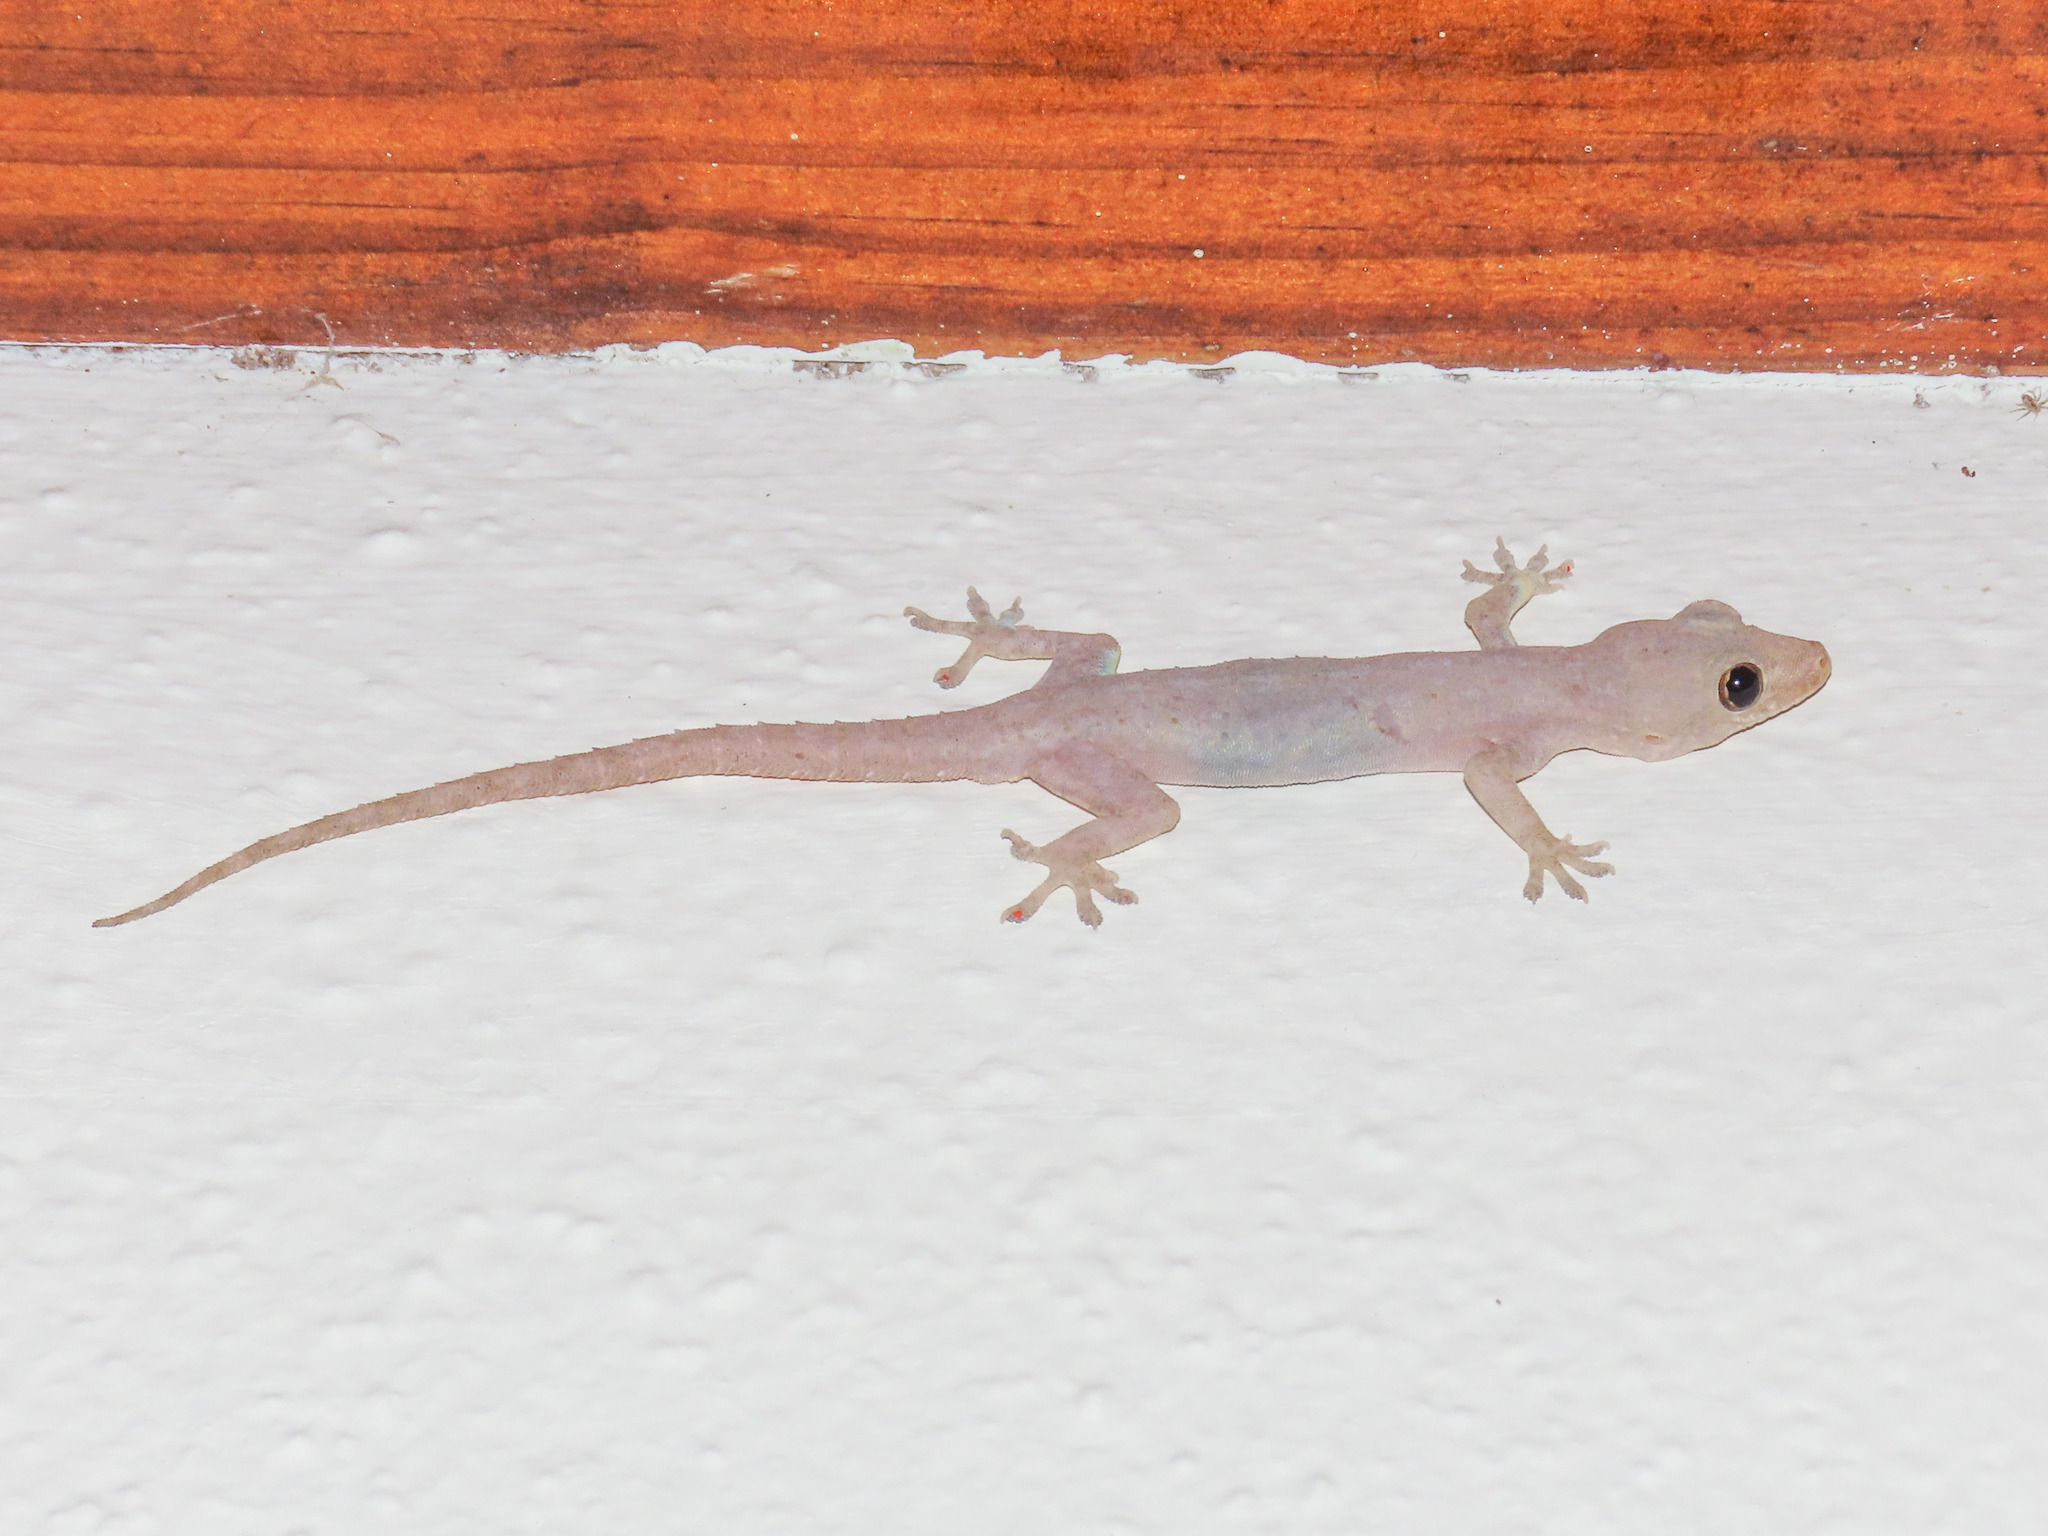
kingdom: Animalia
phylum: Chordata
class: Squamata
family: Gekkonidae
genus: Hemidactylus
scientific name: Hemidactylus frenatus
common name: Common house gecko
